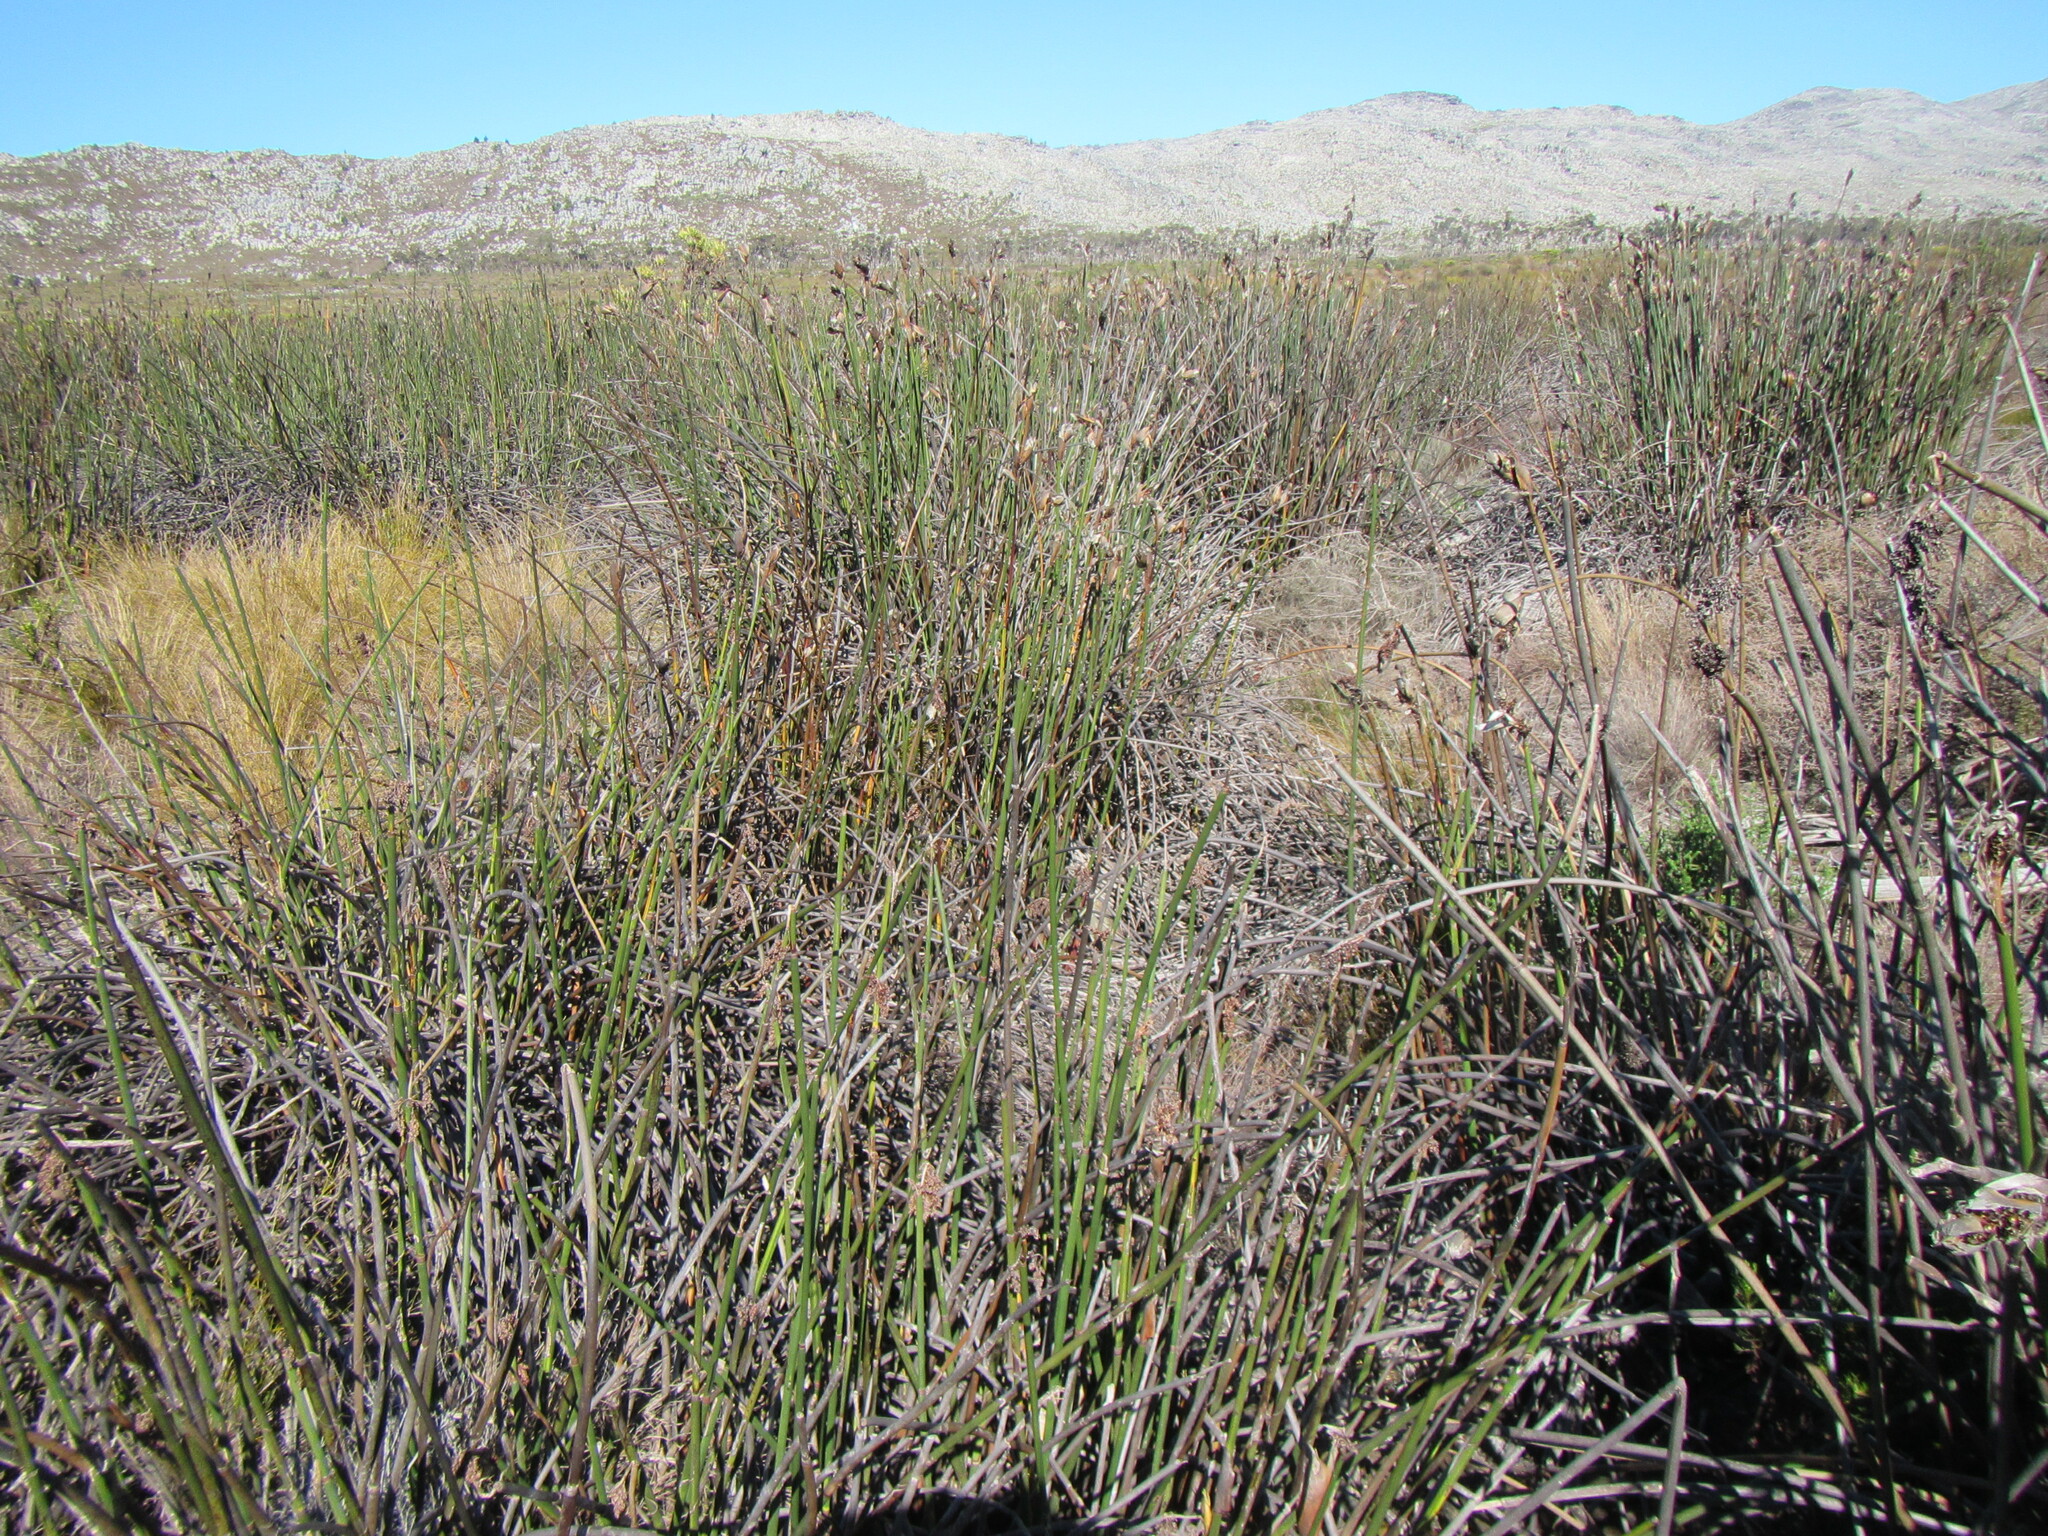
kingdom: Plantae
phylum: Tracheophyta
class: Liliopsida
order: Poales
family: Restionaceae
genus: Elegia
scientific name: Elegia mucronata
